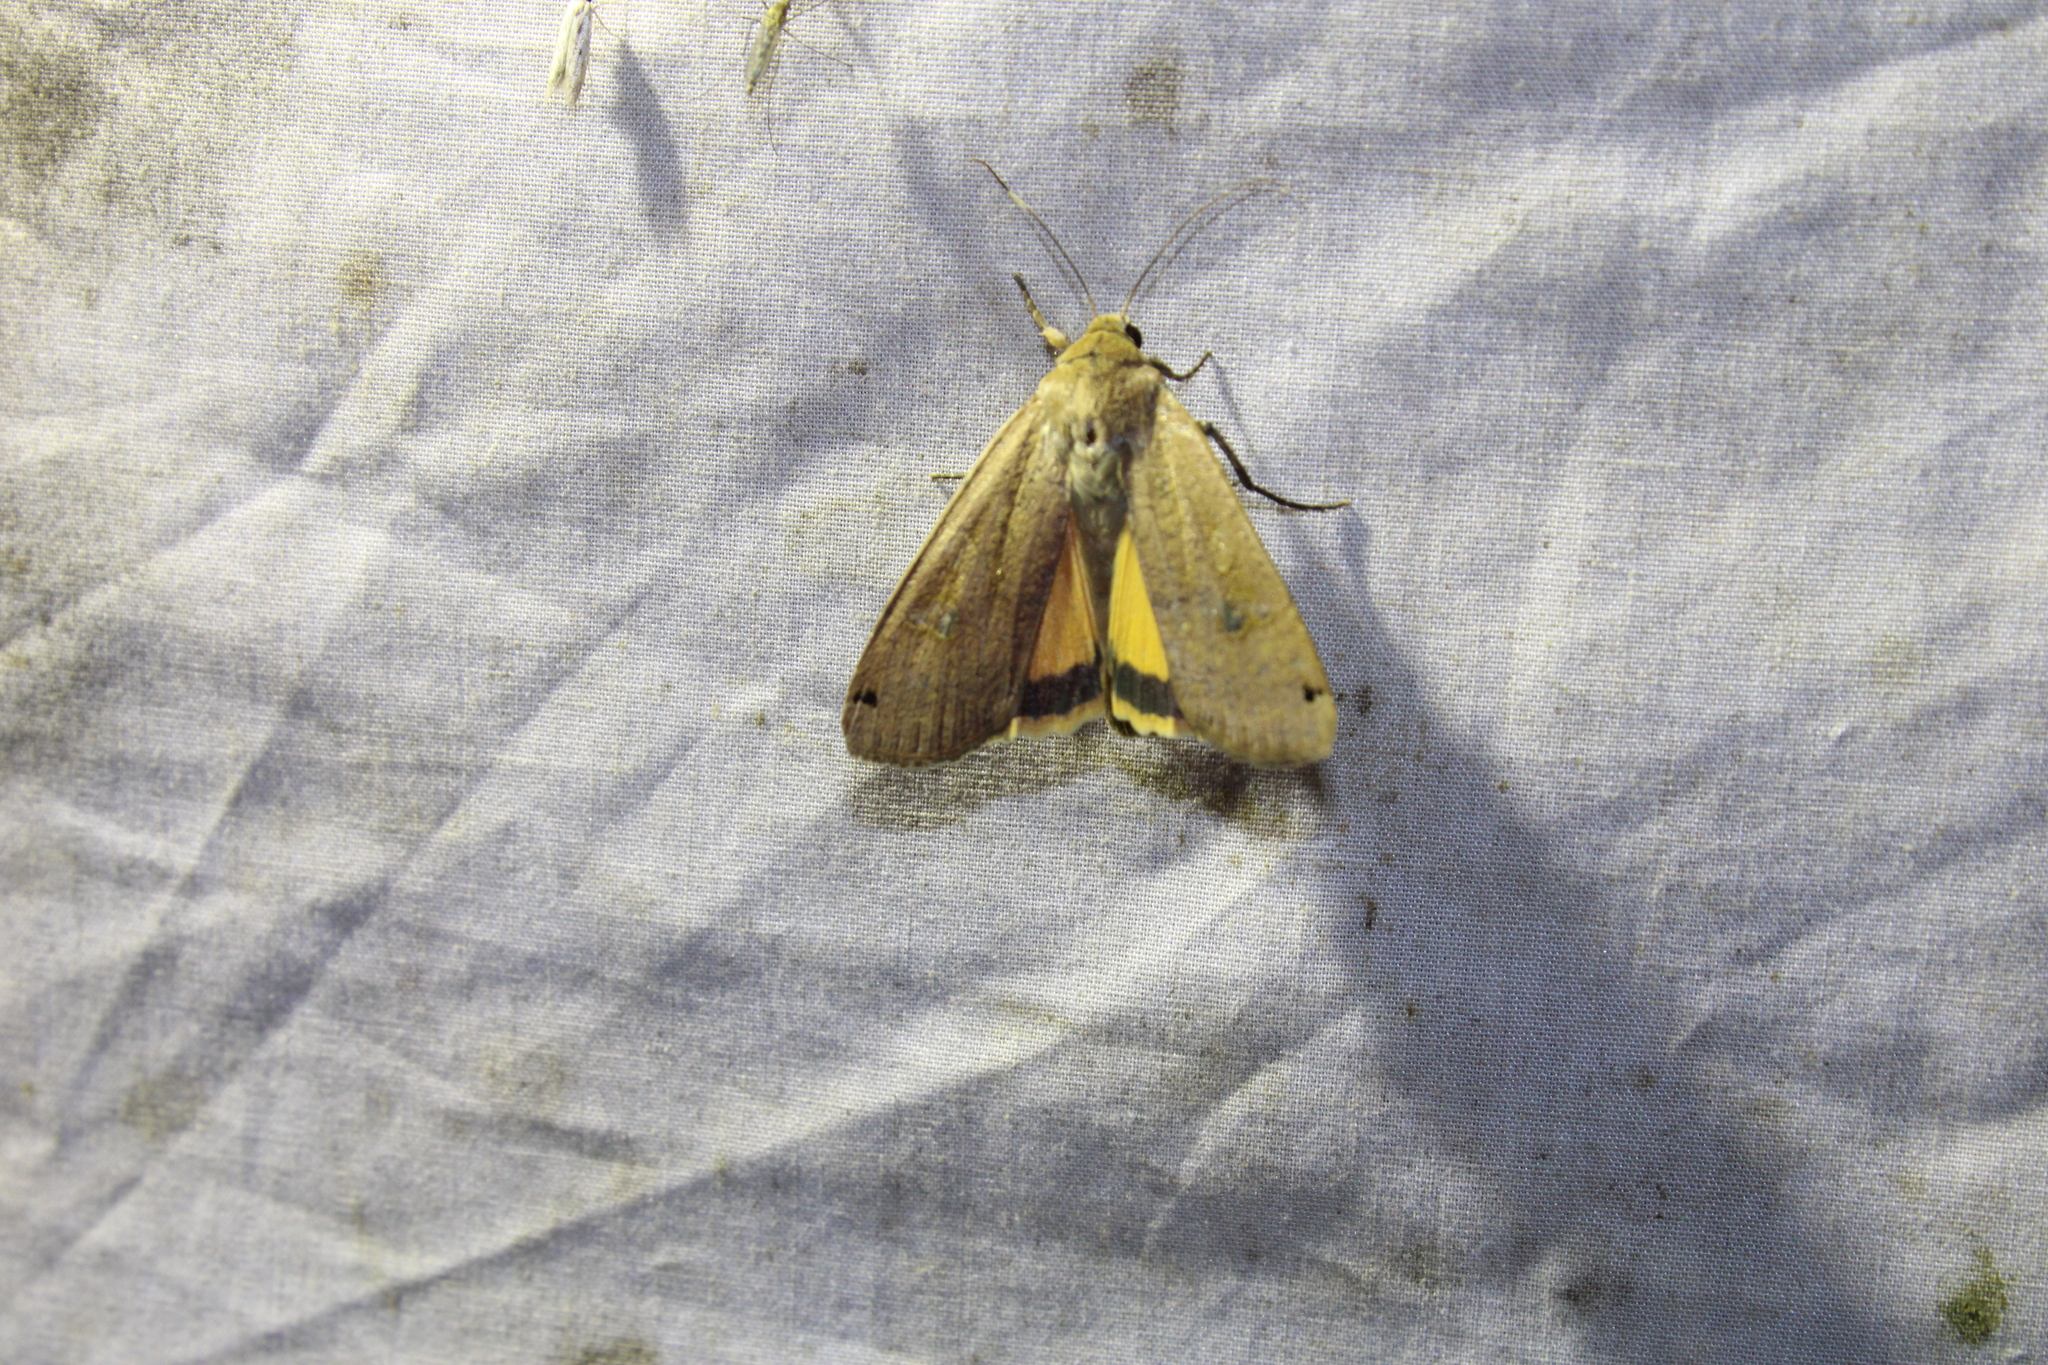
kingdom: Animalia
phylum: Arthropoda
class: Insecta
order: Lepidoptera
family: Noctuidae
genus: Noctua
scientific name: Noctua pronuba
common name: Large yellow underwing
